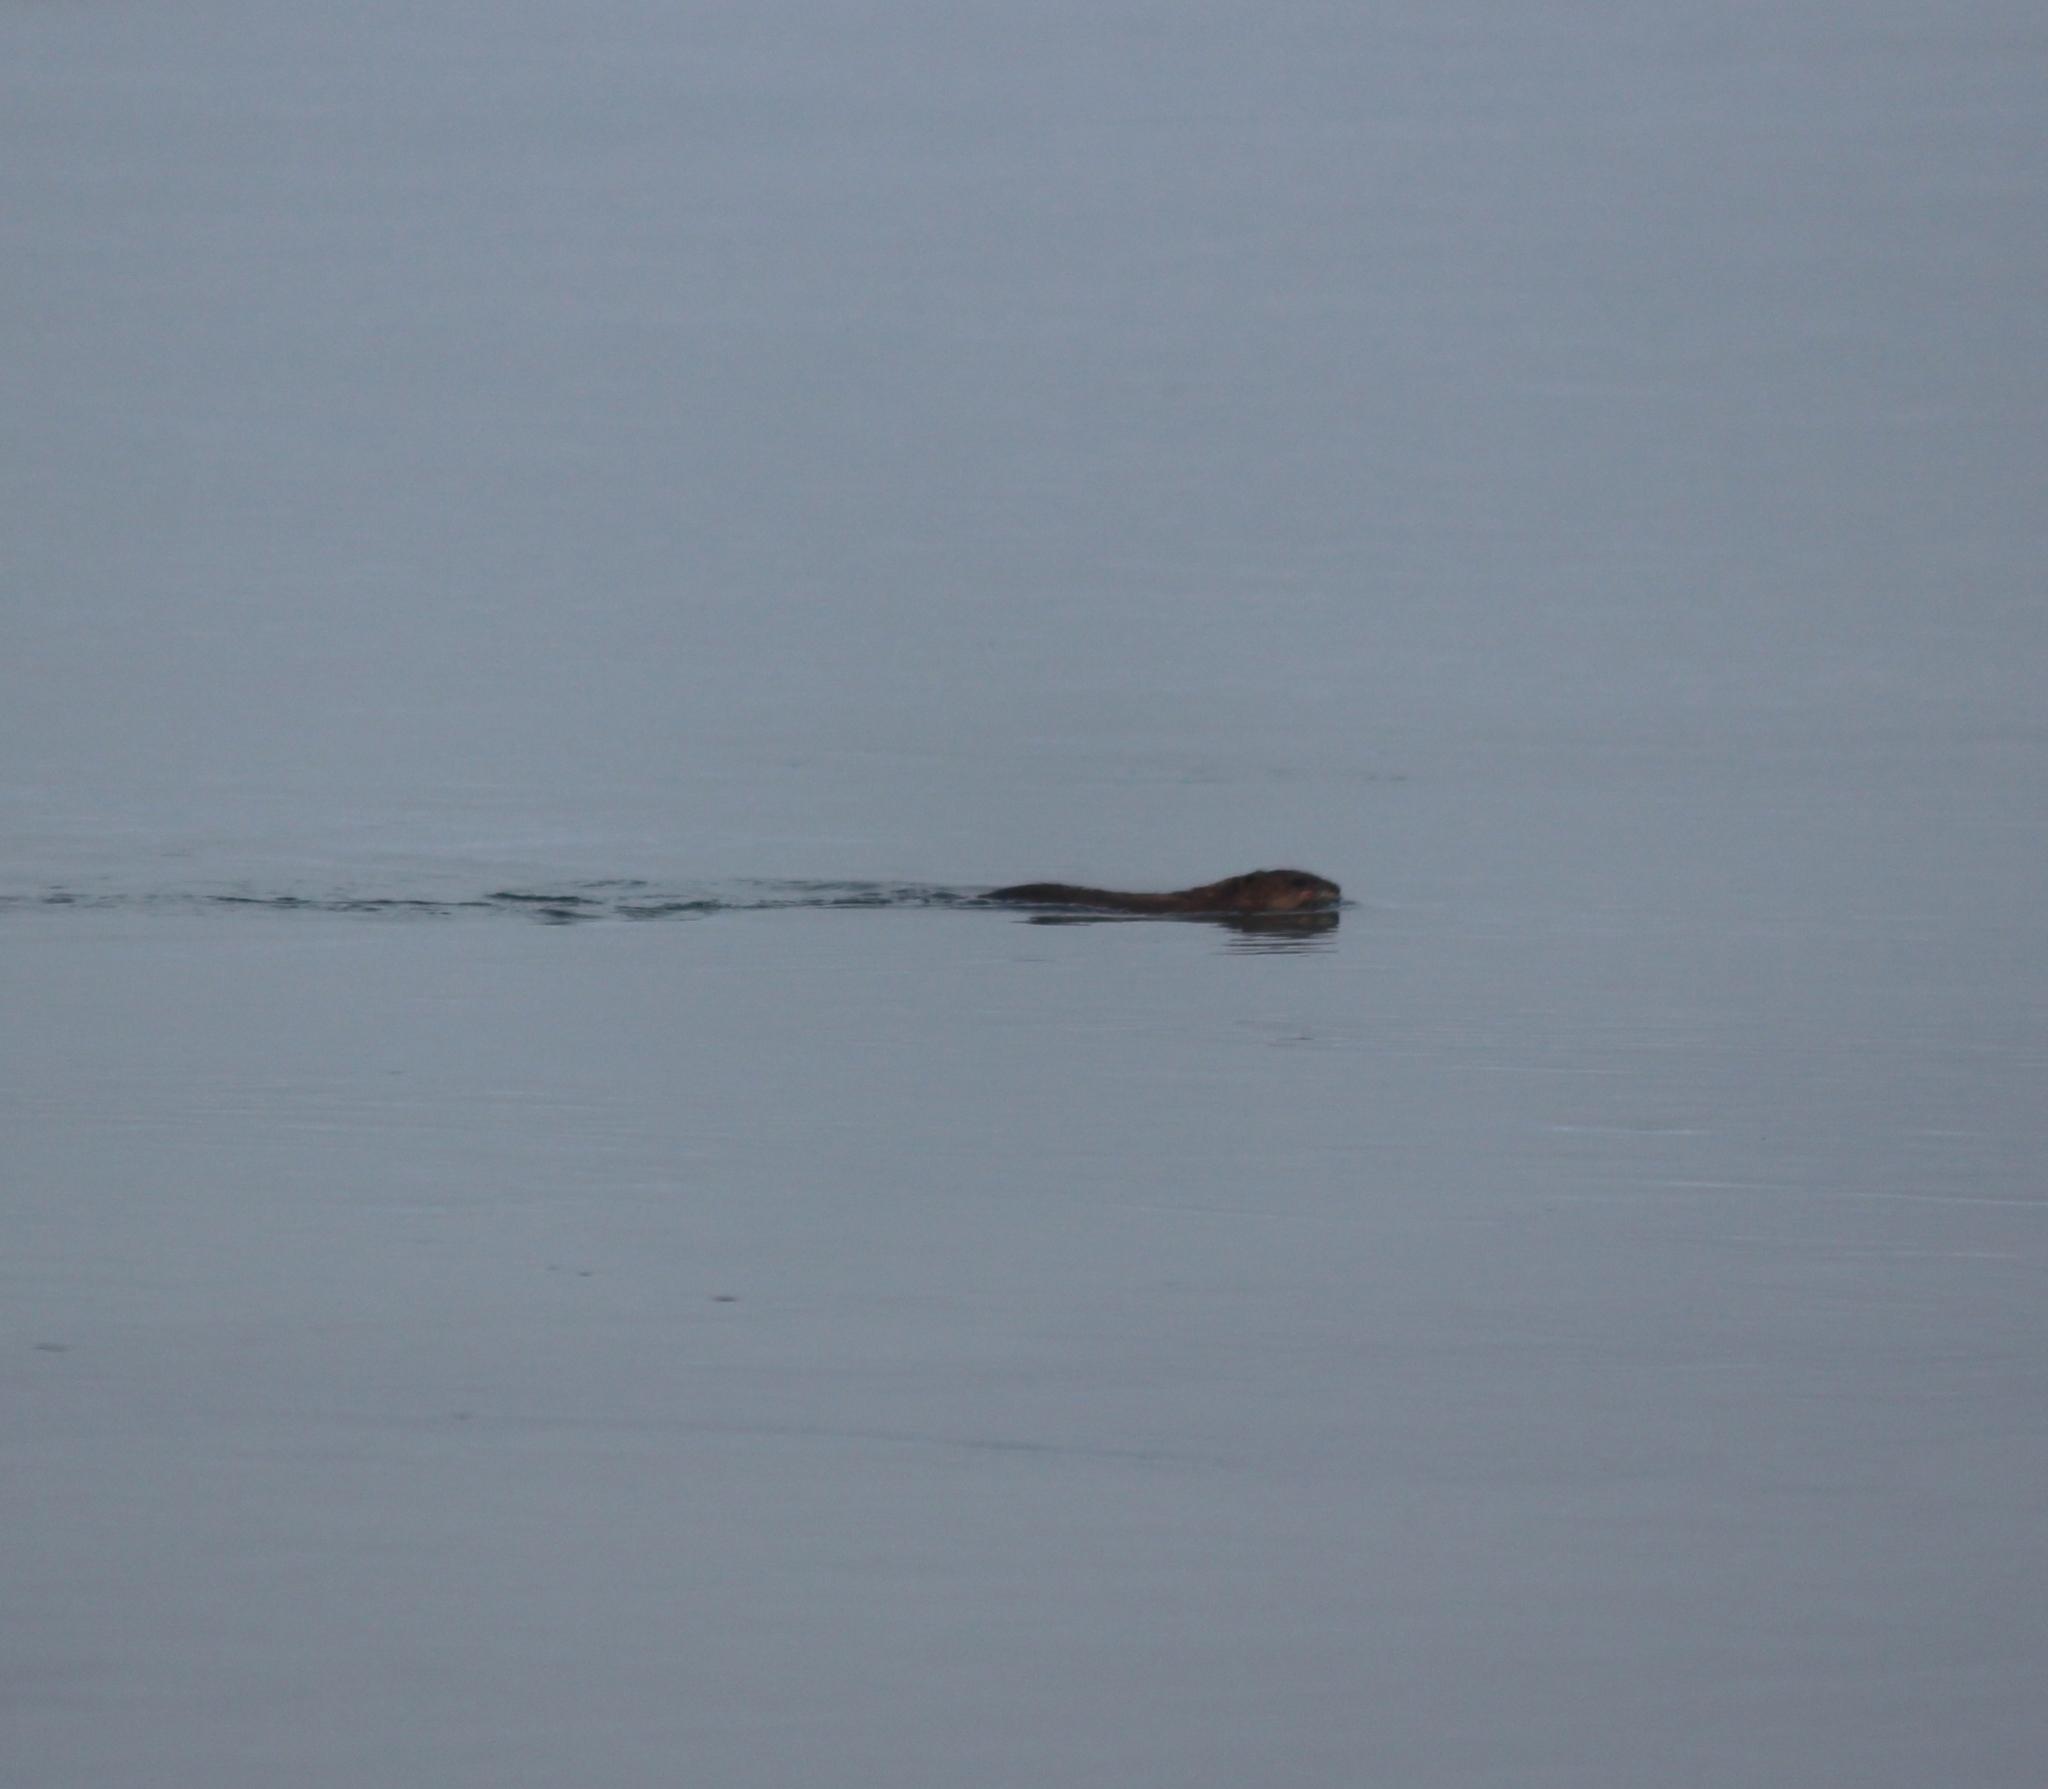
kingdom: Animalia
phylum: Chordata
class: Mammalia
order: Rodentia
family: Cricetidae
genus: Ondatra
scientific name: Ondatra zibethicus
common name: Muskrat
